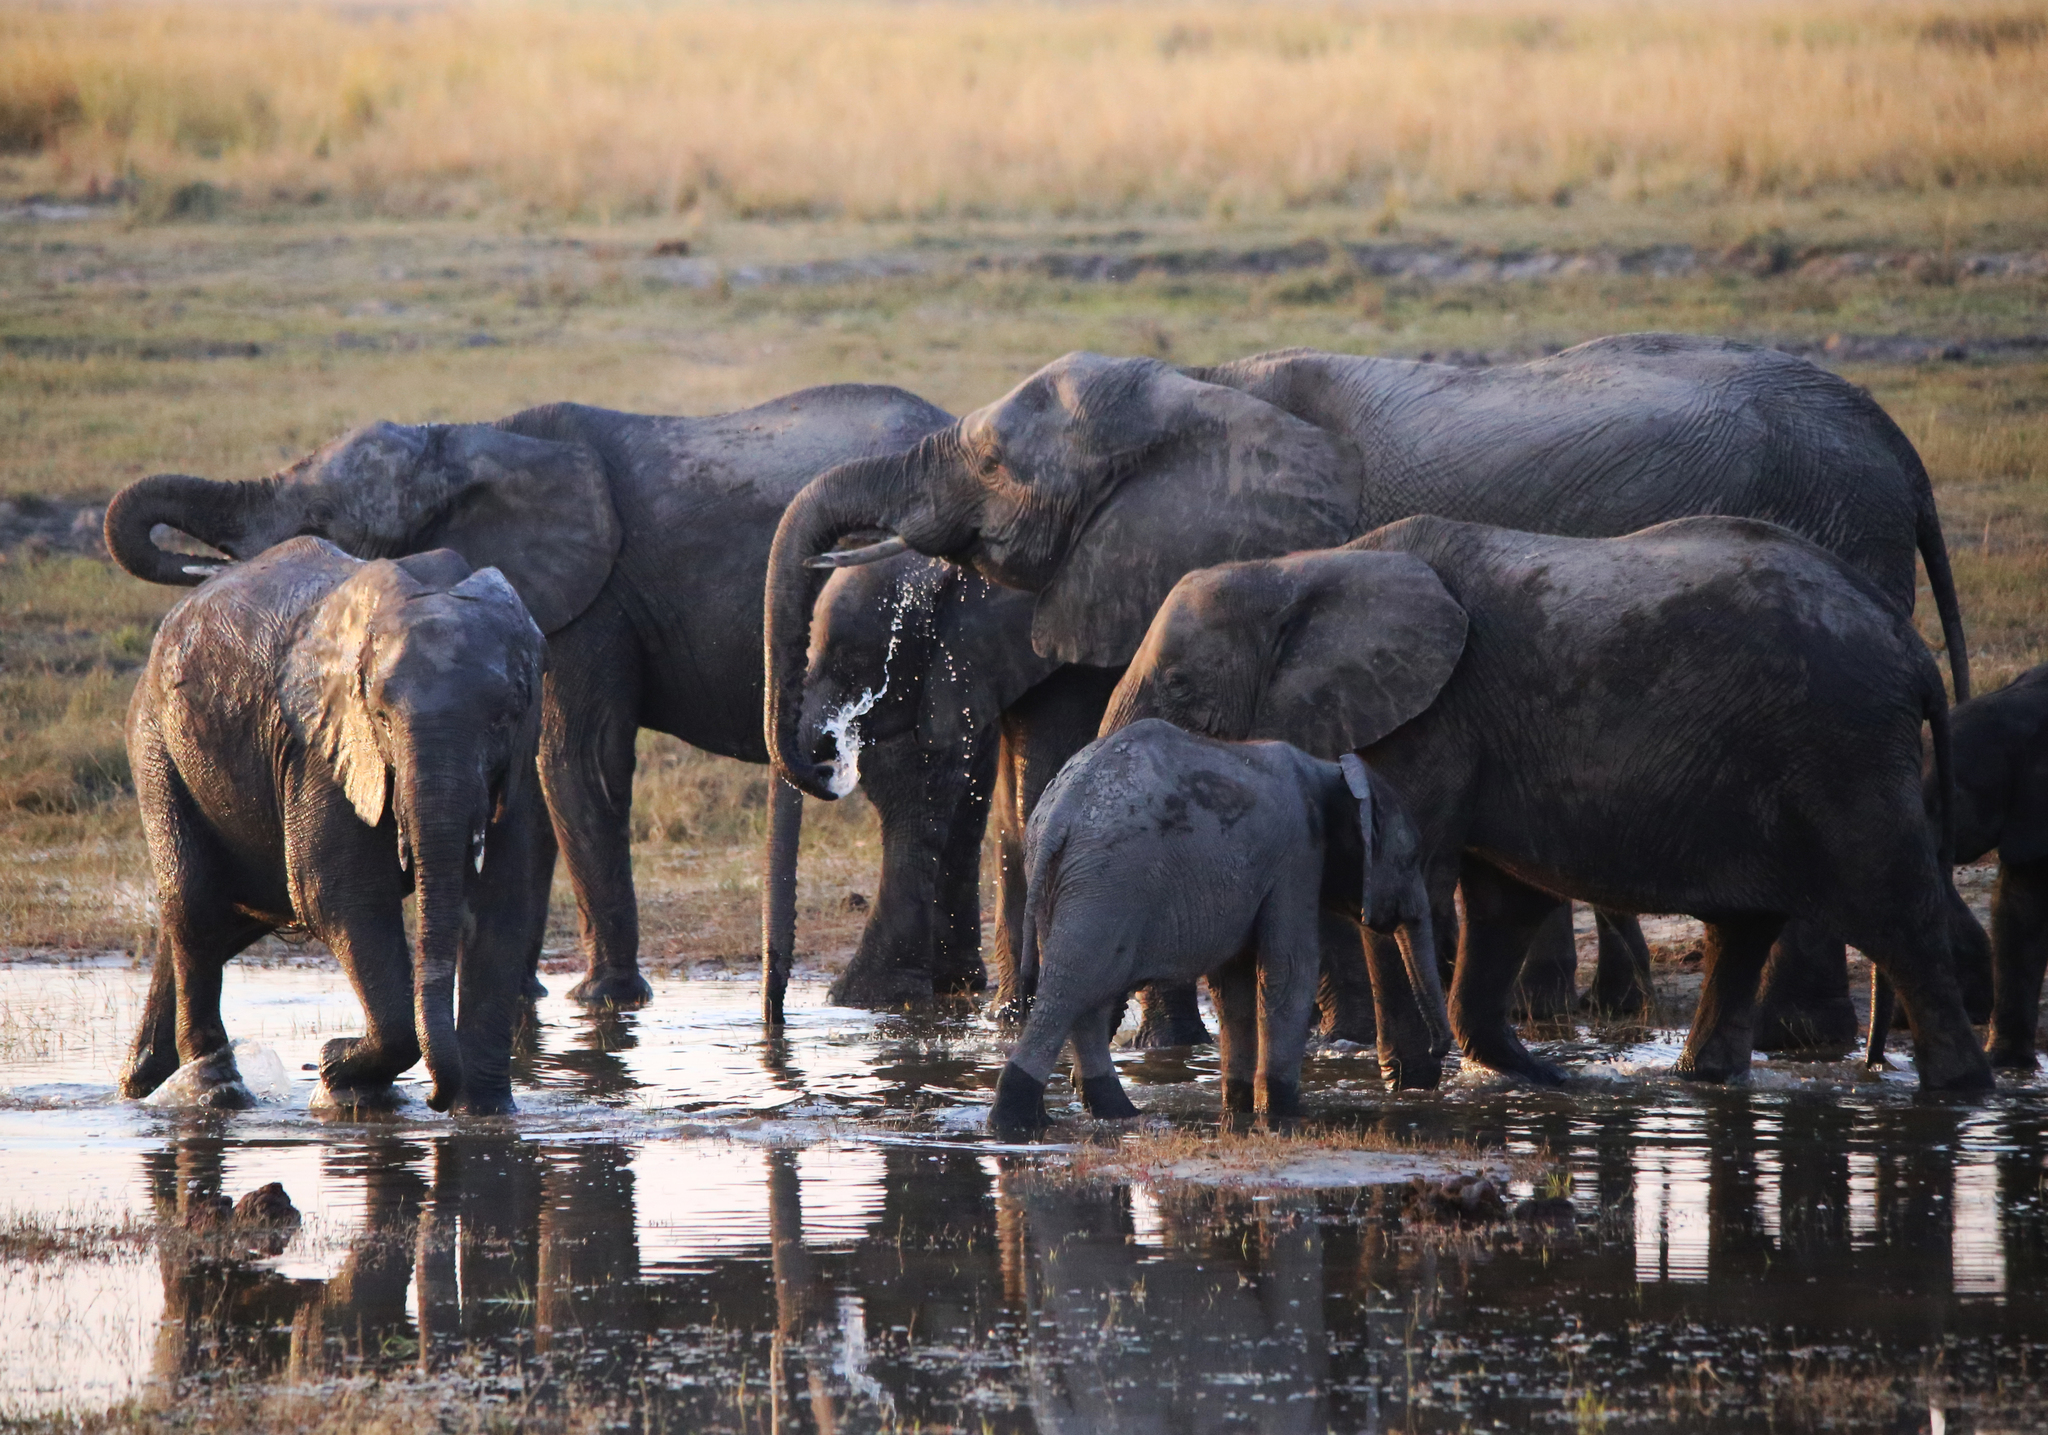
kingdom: Animalia
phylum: Chordata
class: Mammalia
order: Proboscidea
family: Elephantidae
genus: Loxodonta
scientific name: Loxodonta africana
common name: African elephant
